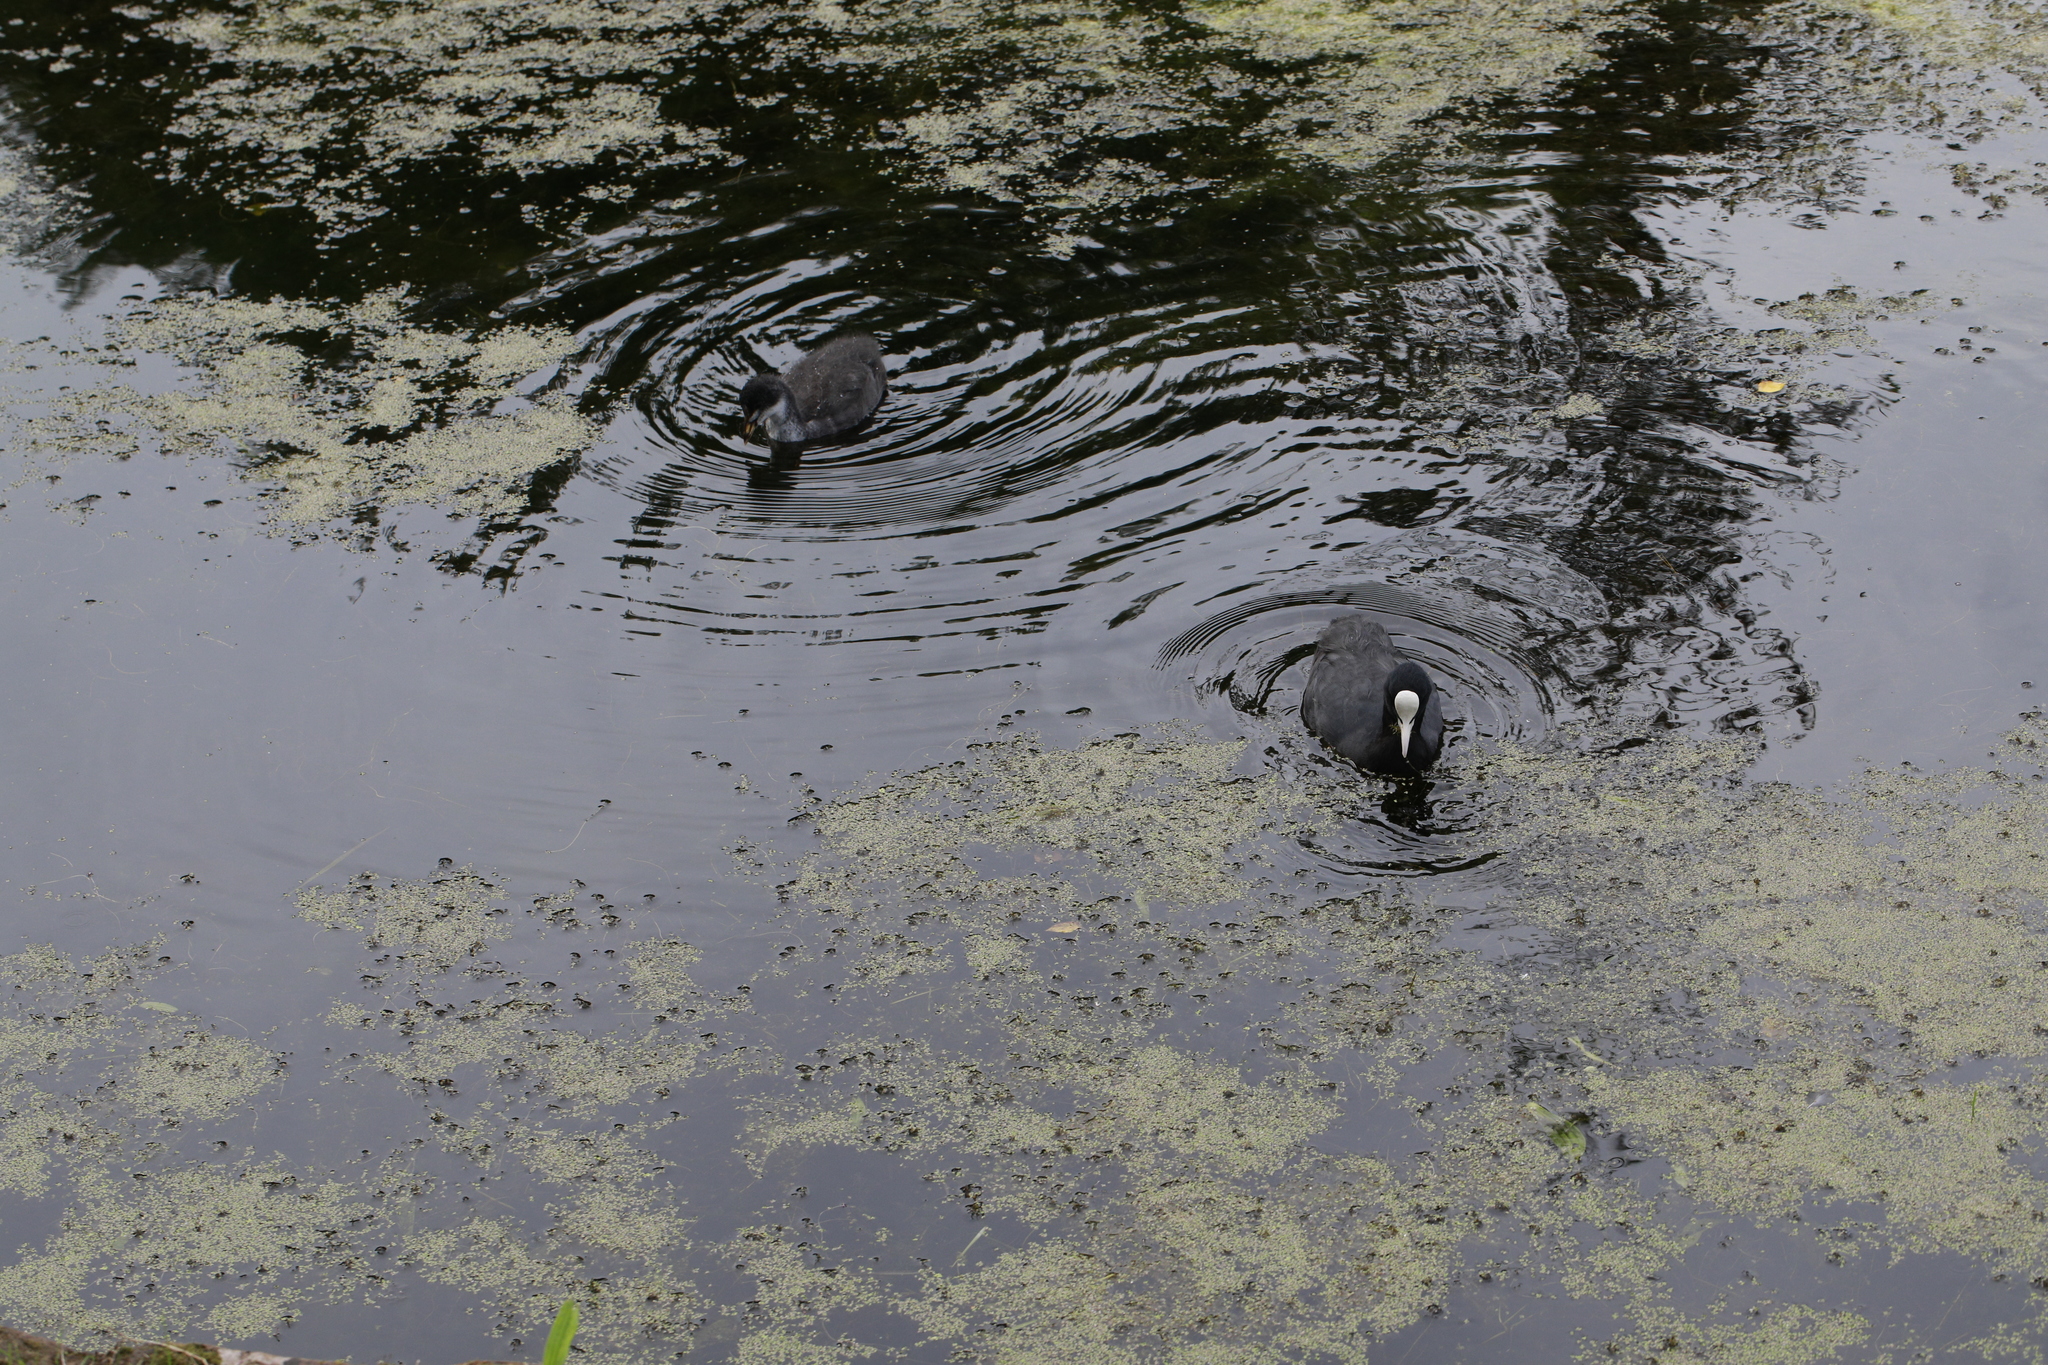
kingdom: Animalia
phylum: Chordata
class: Aves
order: Gruiformes
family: Rallidae
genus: Fulica
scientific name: Fulica atra
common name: Eurasian coot
